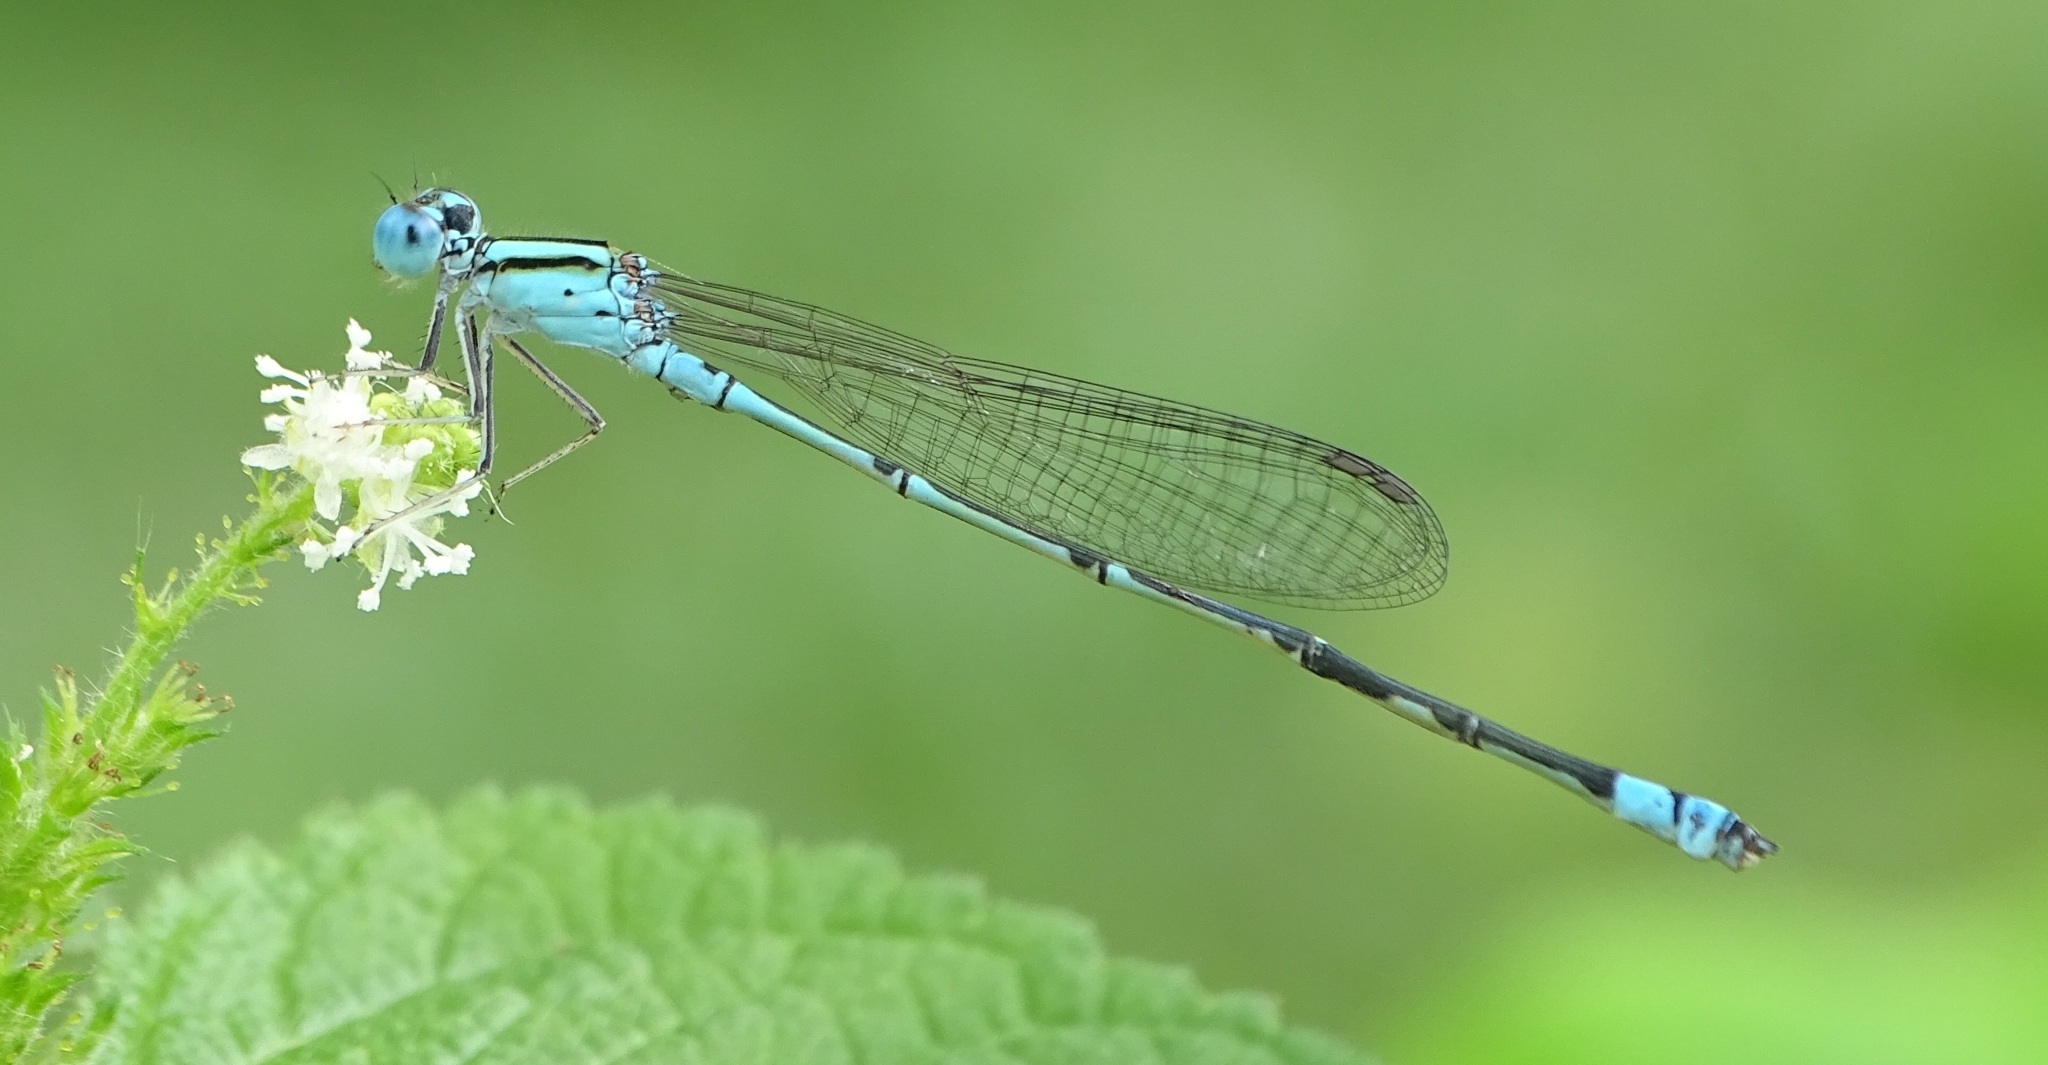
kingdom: Animalia
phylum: Arthropoda
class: Insecta
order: Odonata
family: Coenagrionidae
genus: Pseudagrion
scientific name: Pseudagrion microcephalum
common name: Blue riverdamsel
